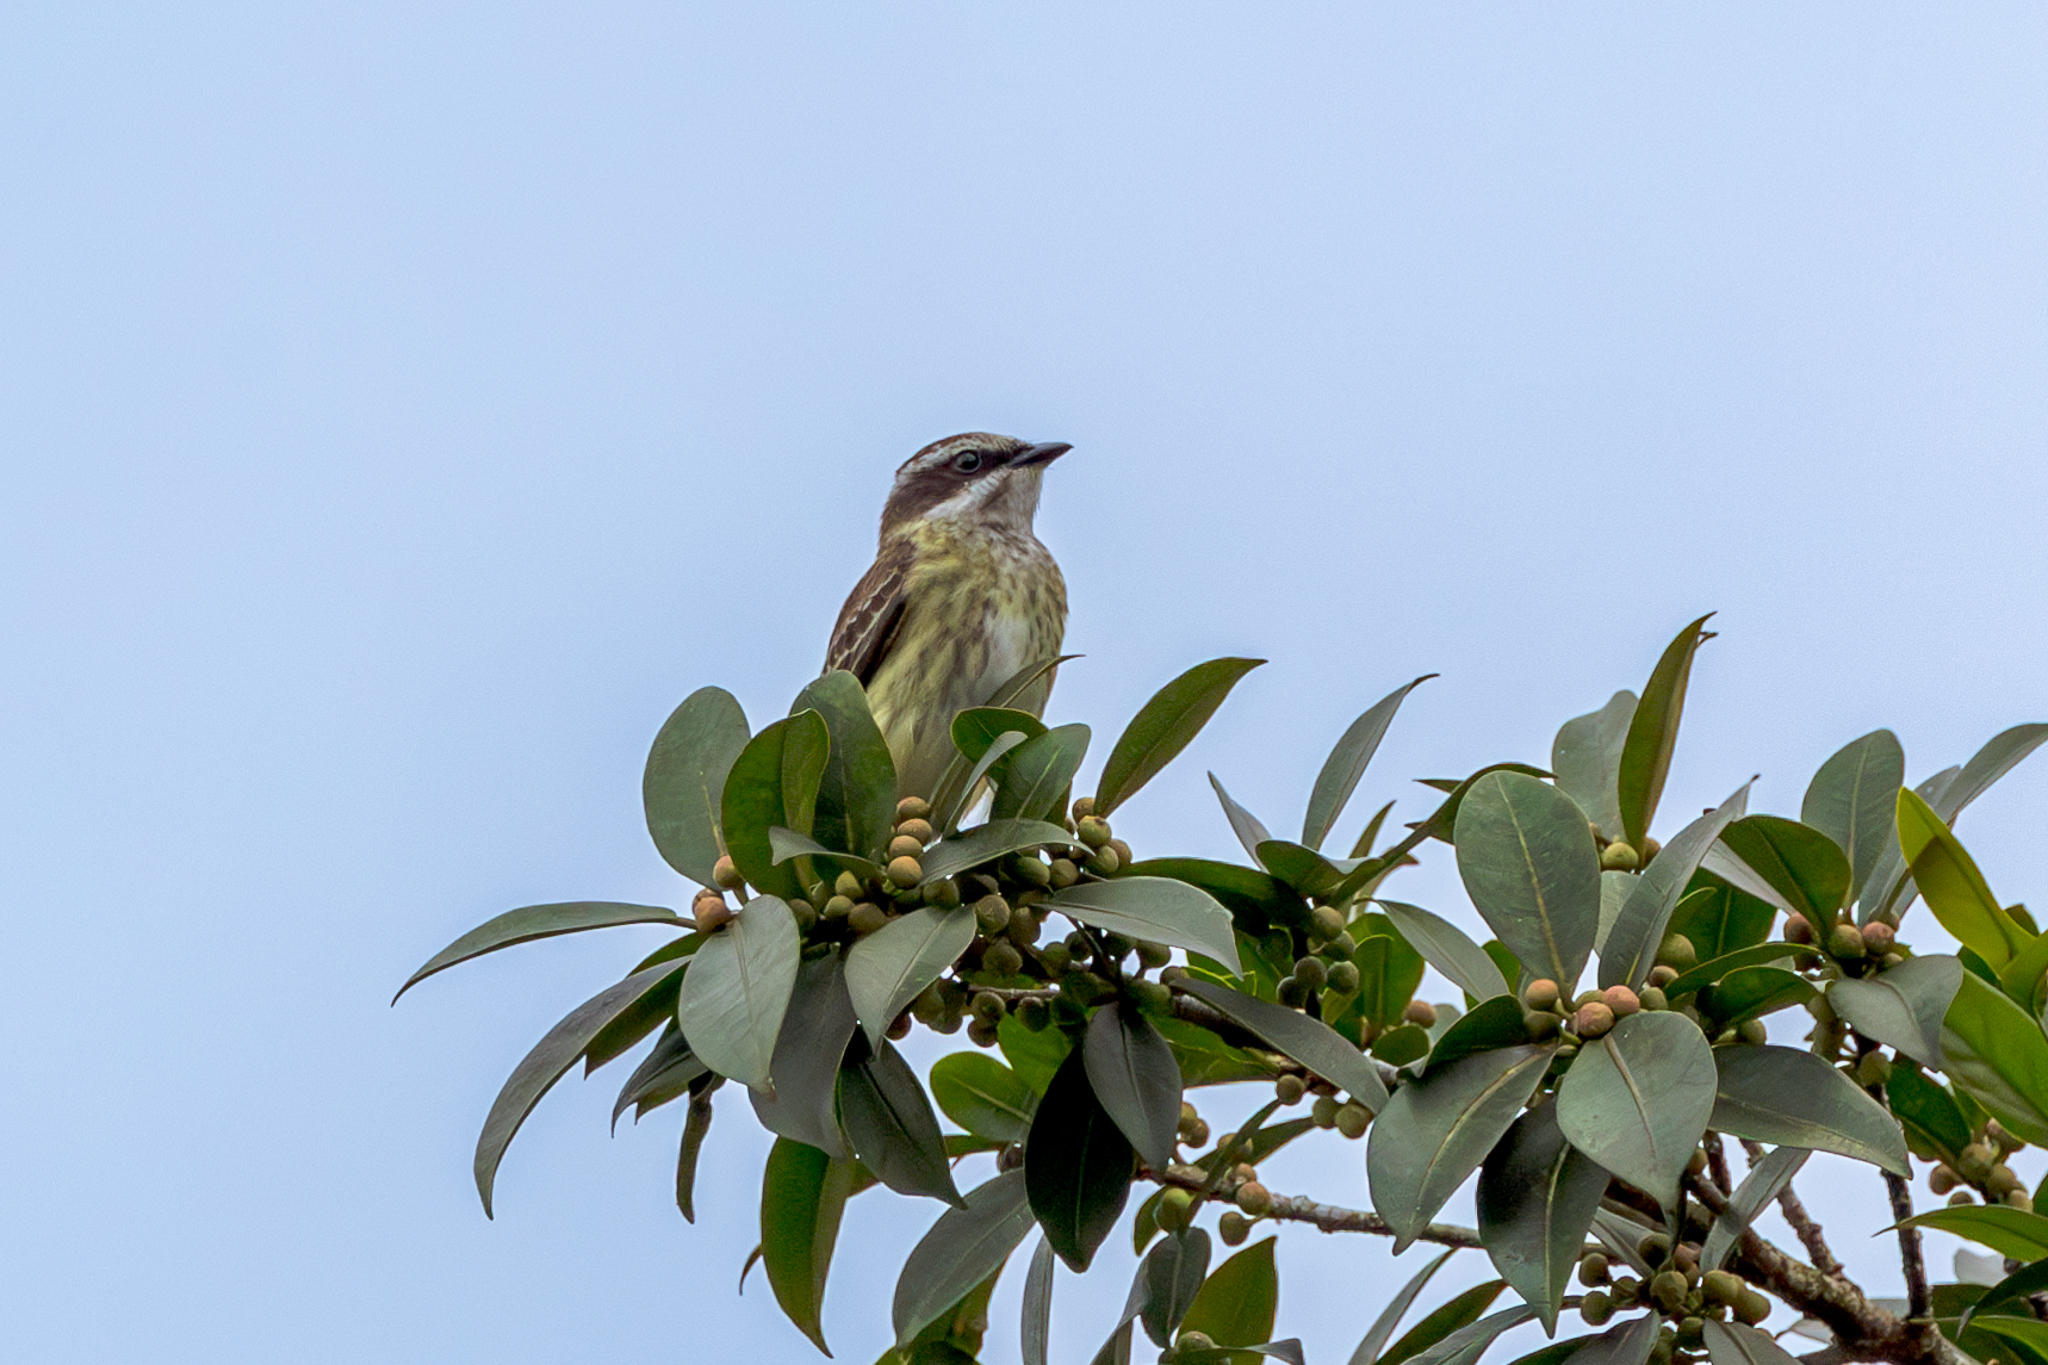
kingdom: Animalia
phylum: Chordata
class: Aves
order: Passeriformes
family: Tyrannidae
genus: Legatus
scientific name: Legatus leucophaius
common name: Piratic flycatcher
